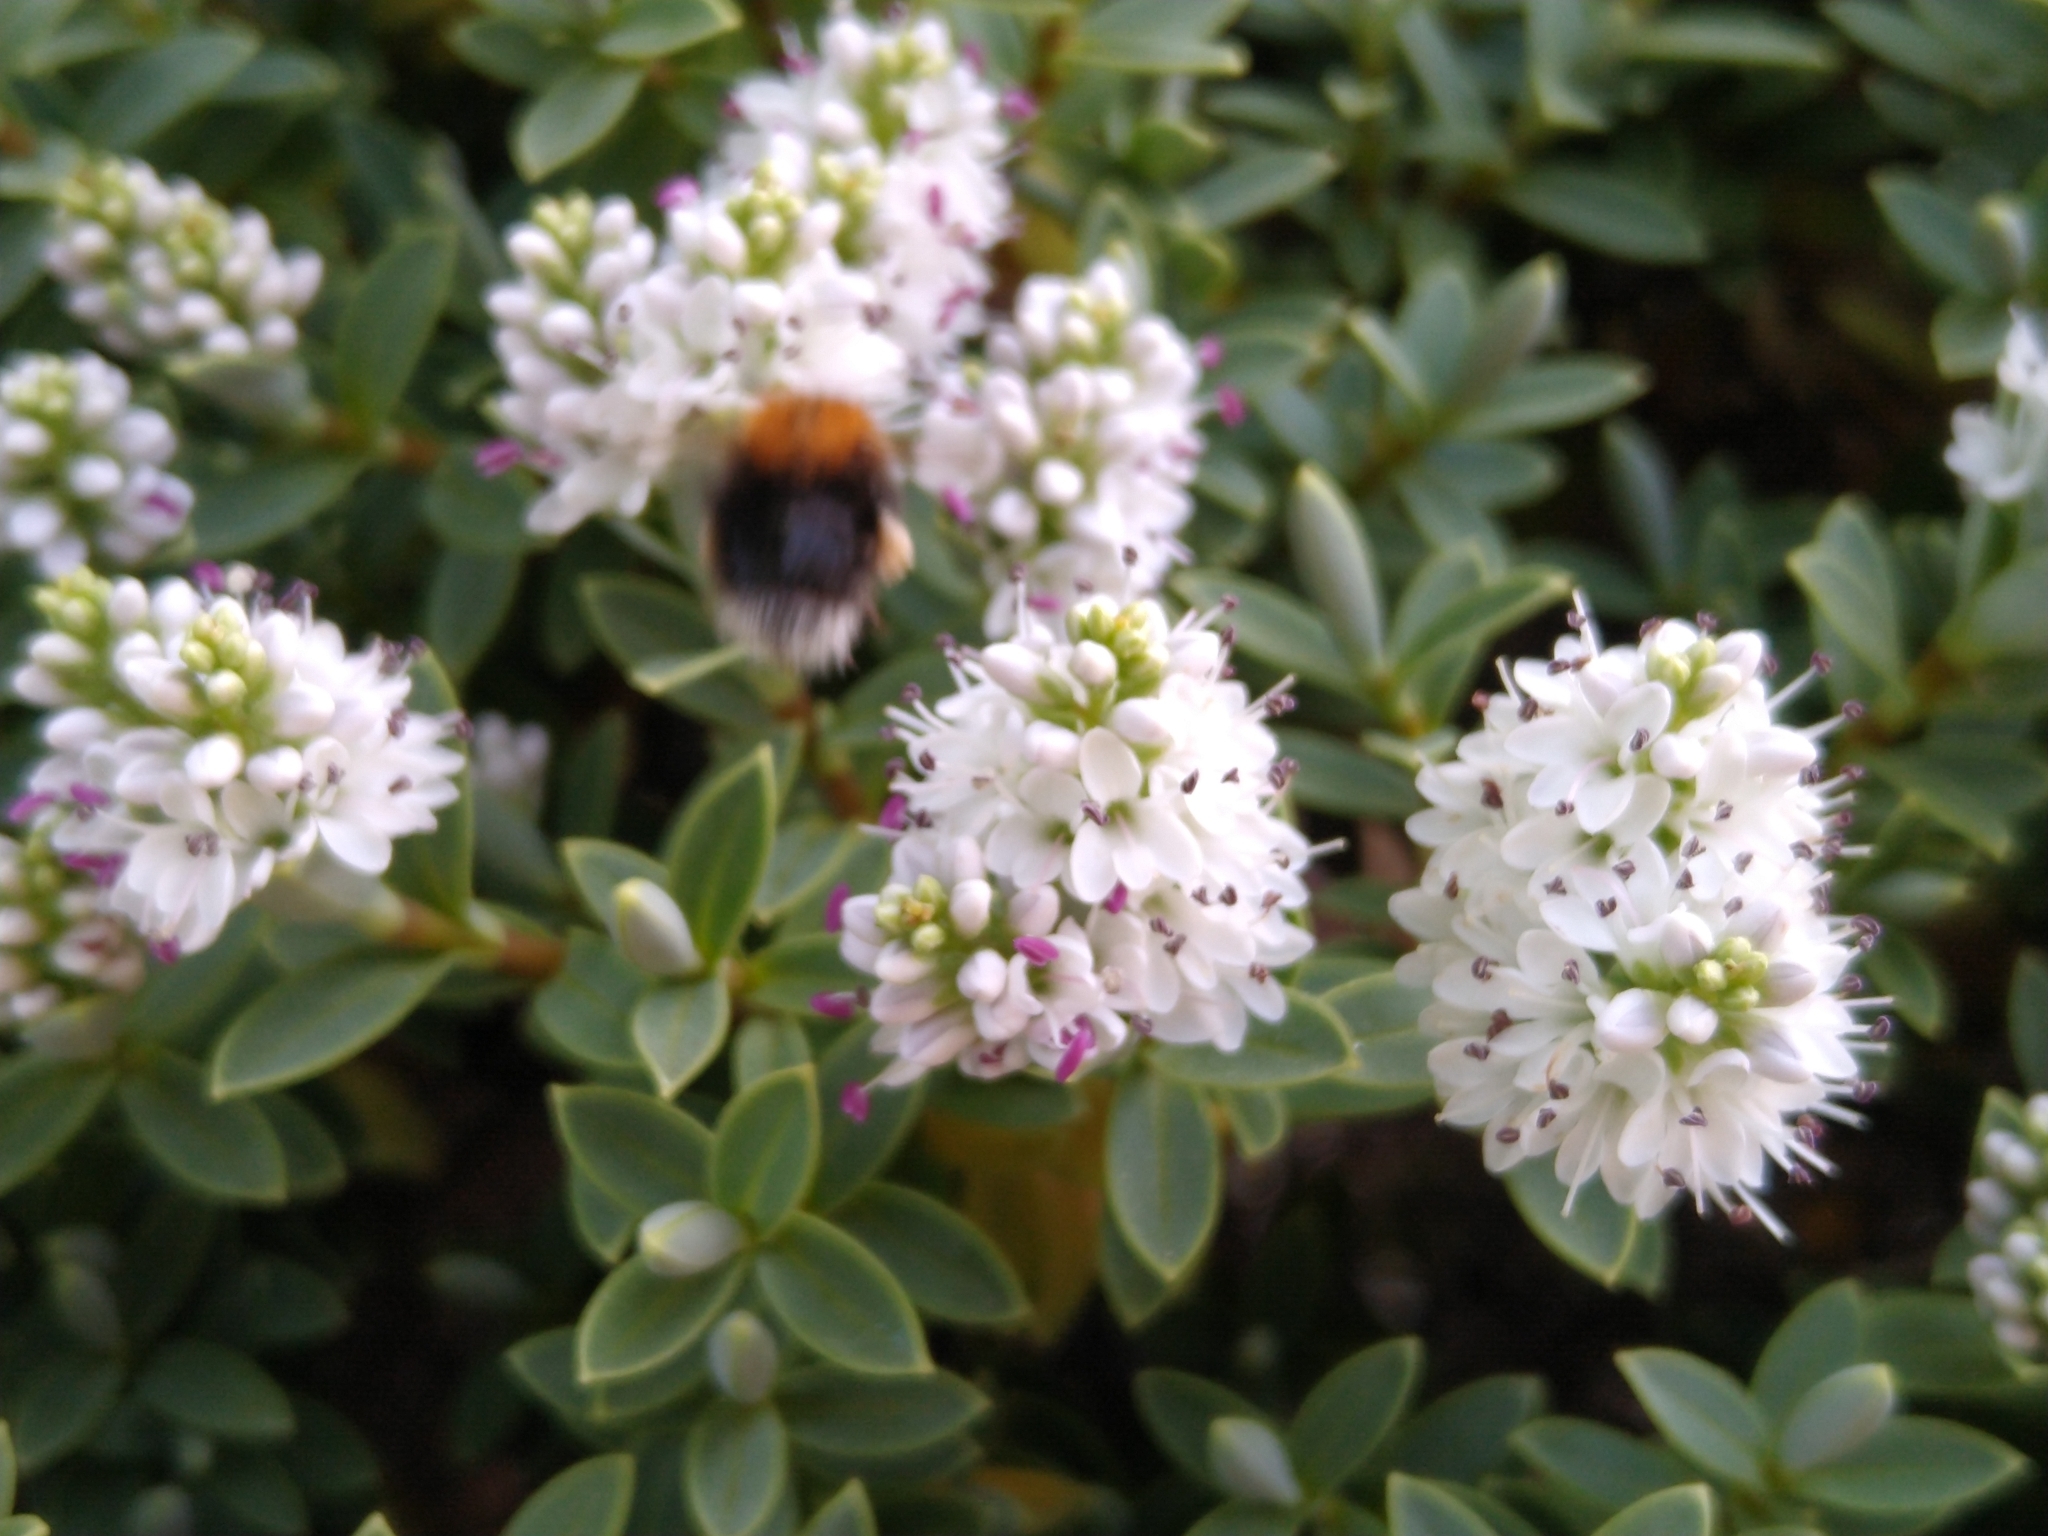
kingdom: Animalia
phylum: Arthropoda
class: Insecta
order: Hymenoptera
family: Apidae
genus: Bombus
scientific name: Bombus hypnorum
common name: New garden bumblebee
